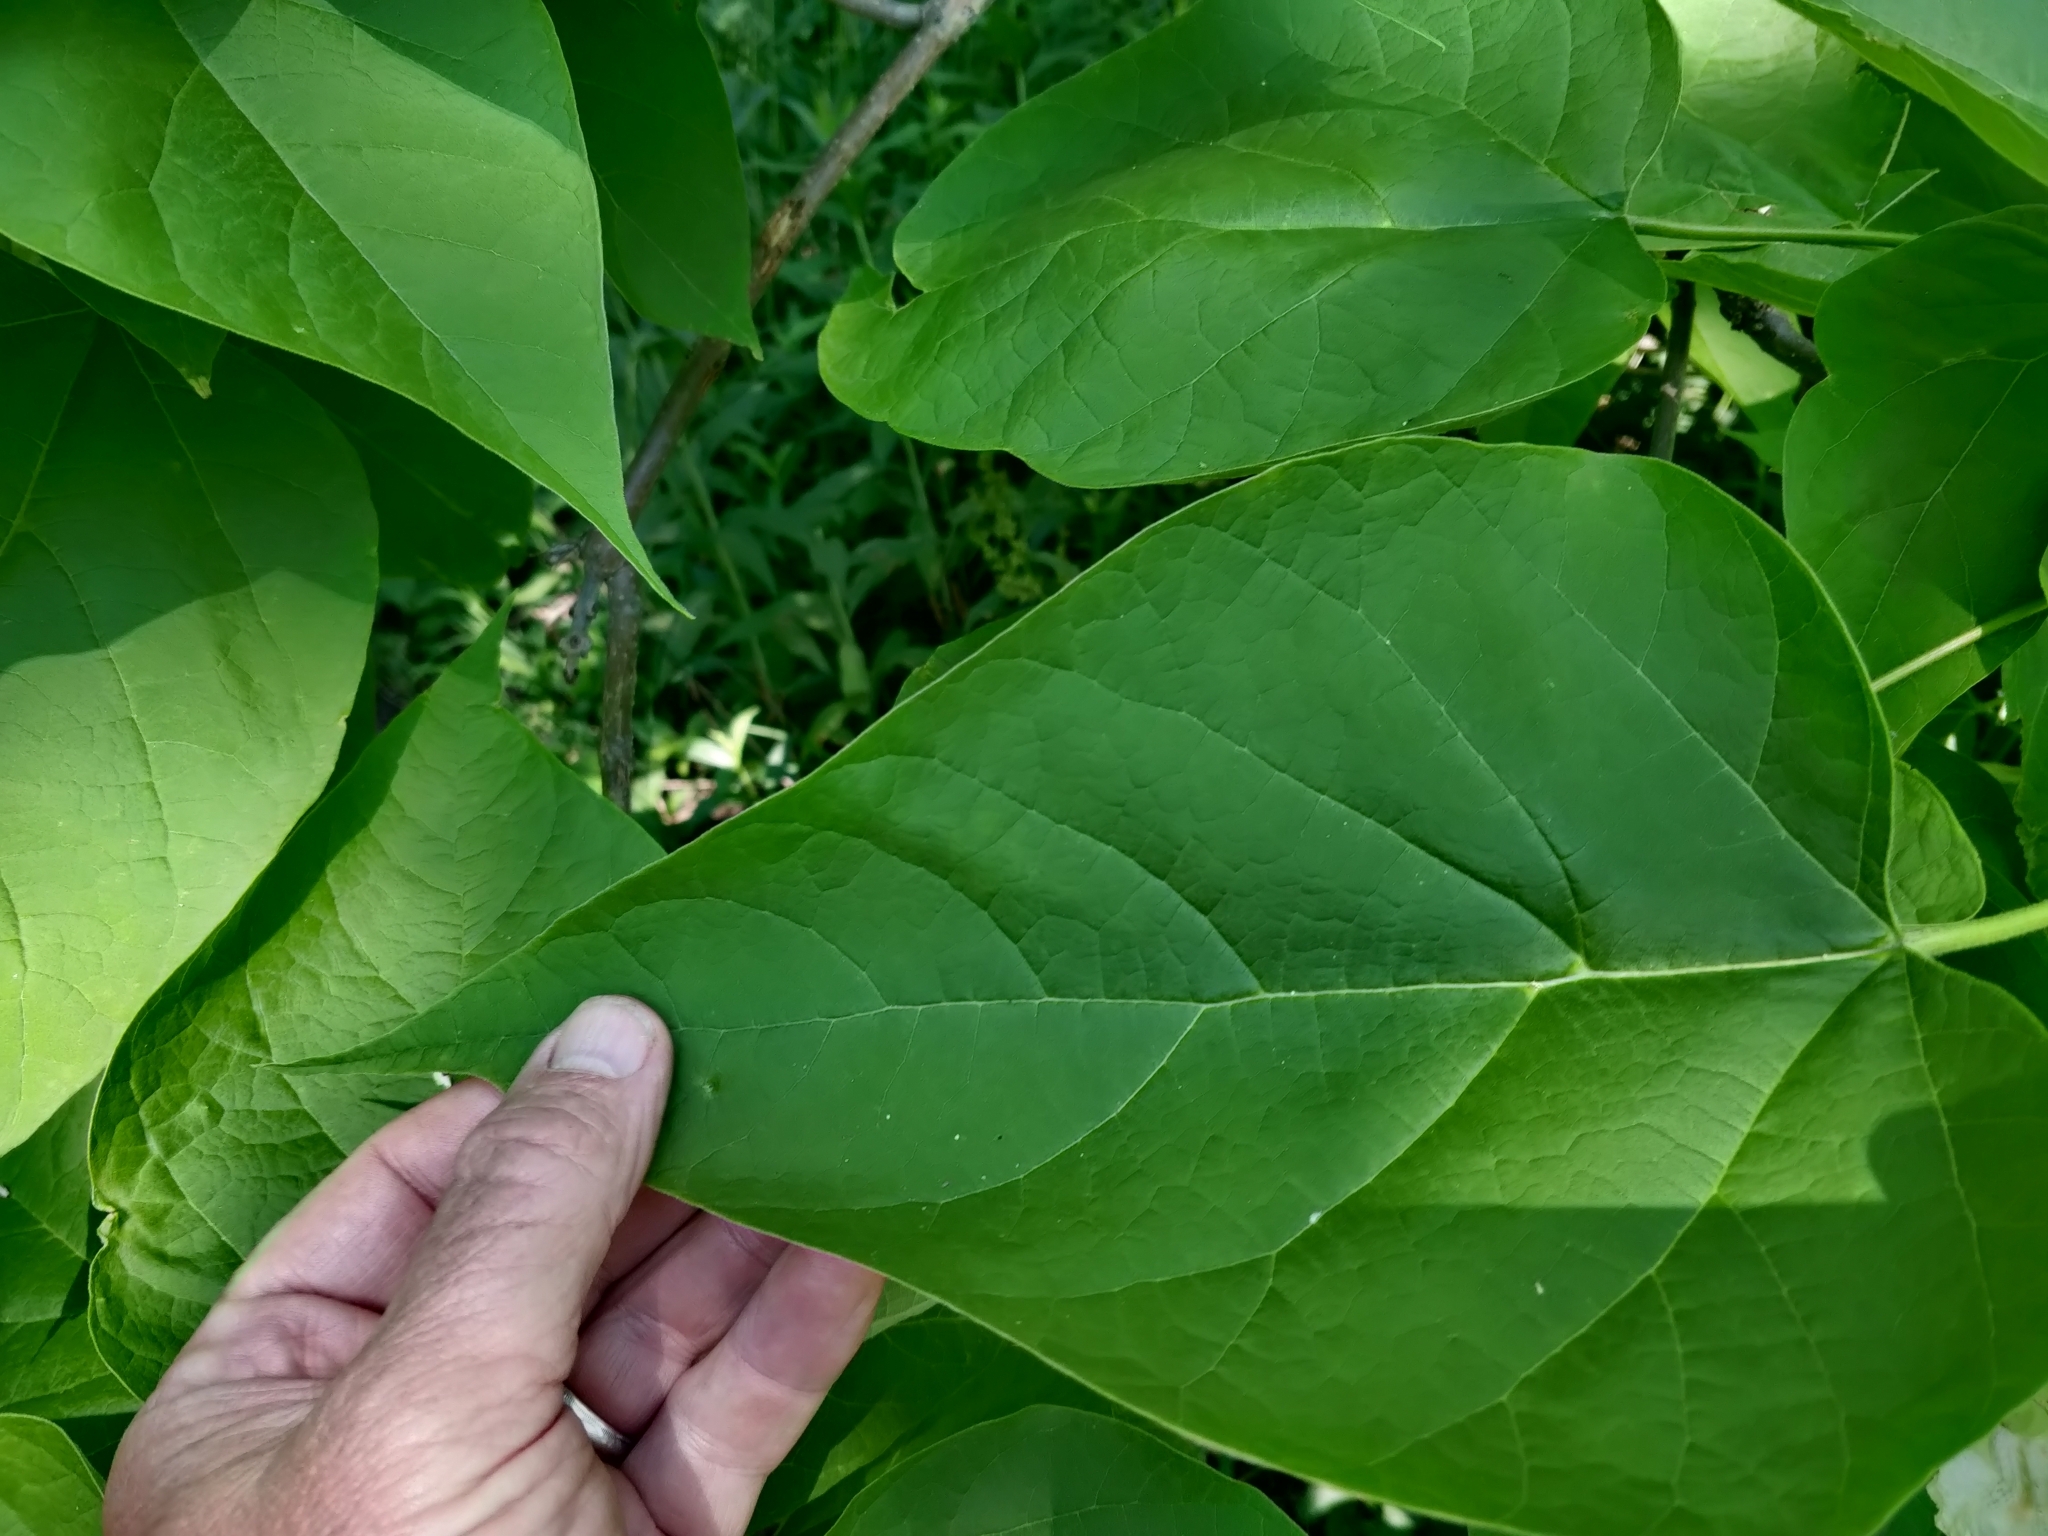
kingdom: Plantae
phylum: Tracheophyta
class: Magnoliopsida
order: Lamiales
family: Bignoniaceae
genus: Catalpa
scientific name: Catalpa speciosa
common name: Northern catalpa
